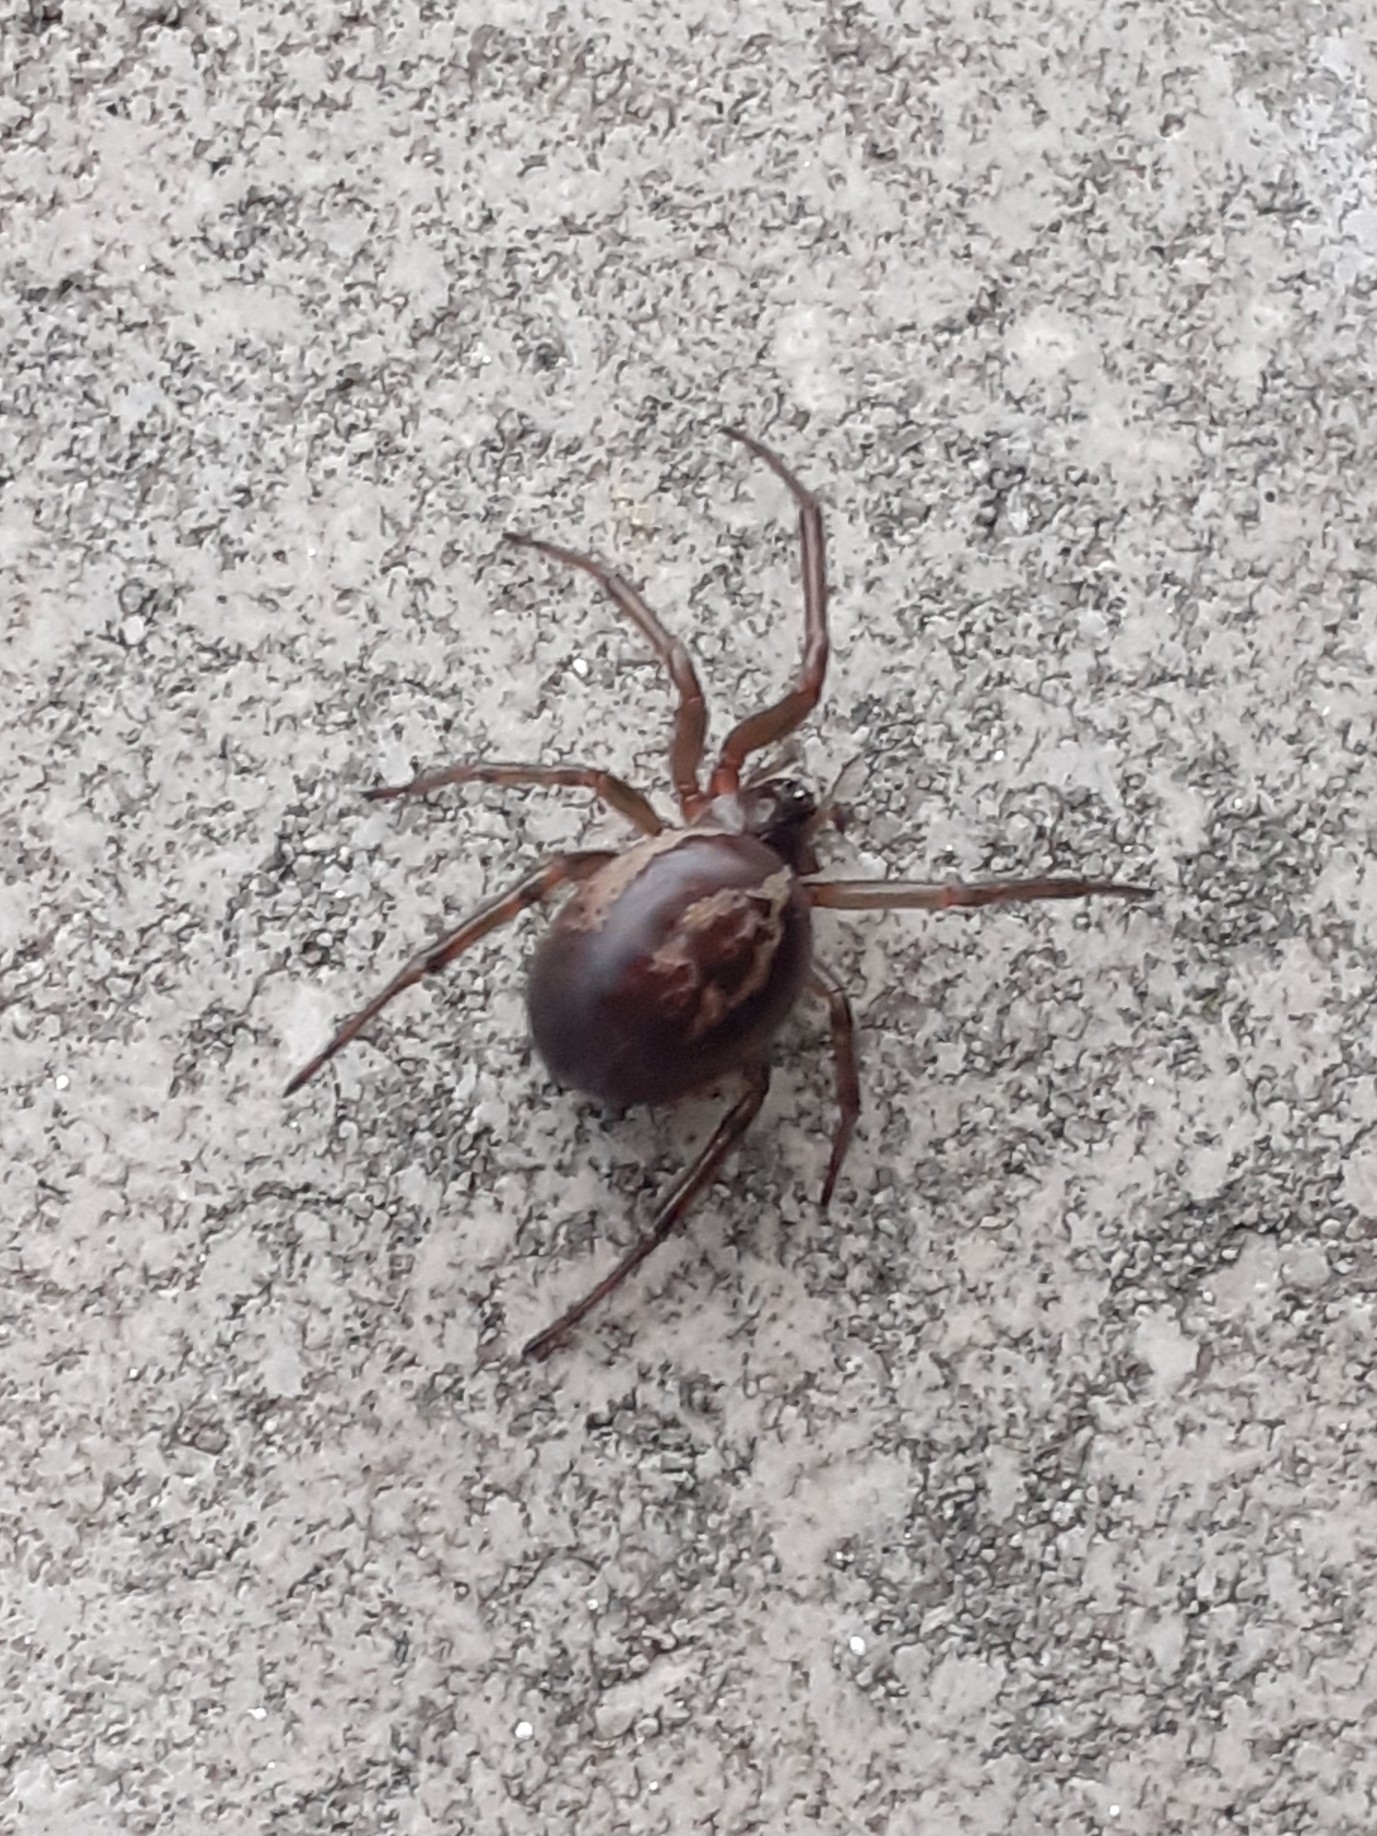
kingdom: Animalia
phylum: Arthropoda
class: Arachnida
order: Araneae
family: Theridiidae
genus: Steatoda
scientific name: Steatoda nobilis
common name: Cobweb weaver
